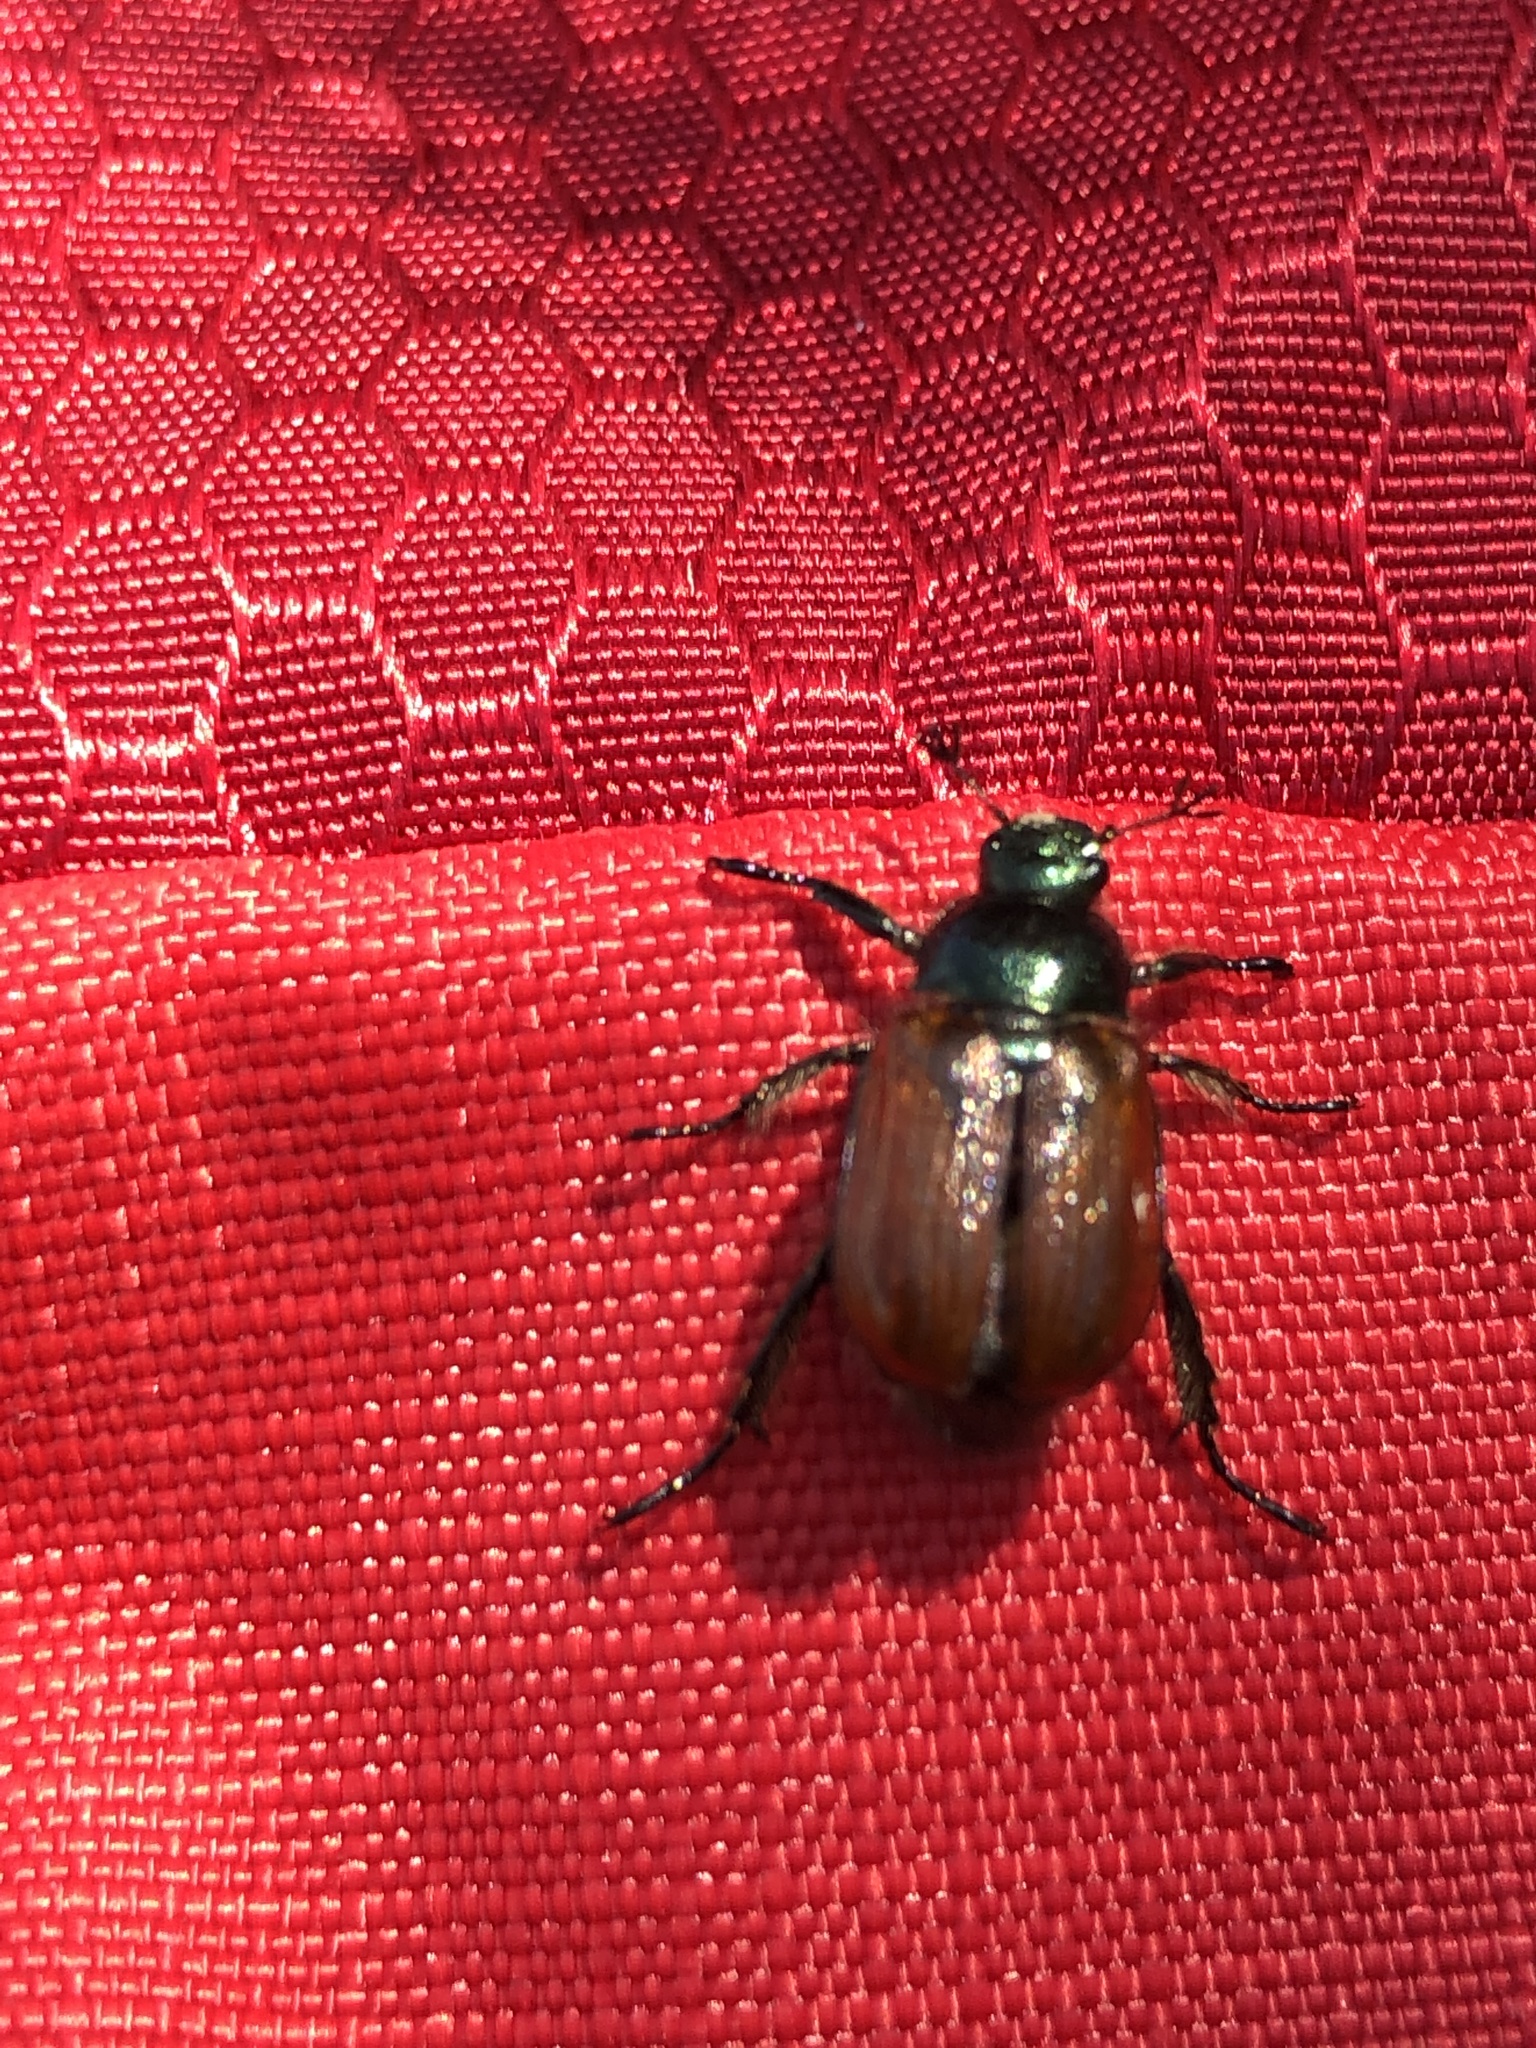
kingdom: Animalia
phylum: Arthropoda
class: Insecta
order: Coleoptera
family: Scarabaeidae
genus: Phyllopertha
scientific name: Phyllopertha horticola
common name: Garden chafer
